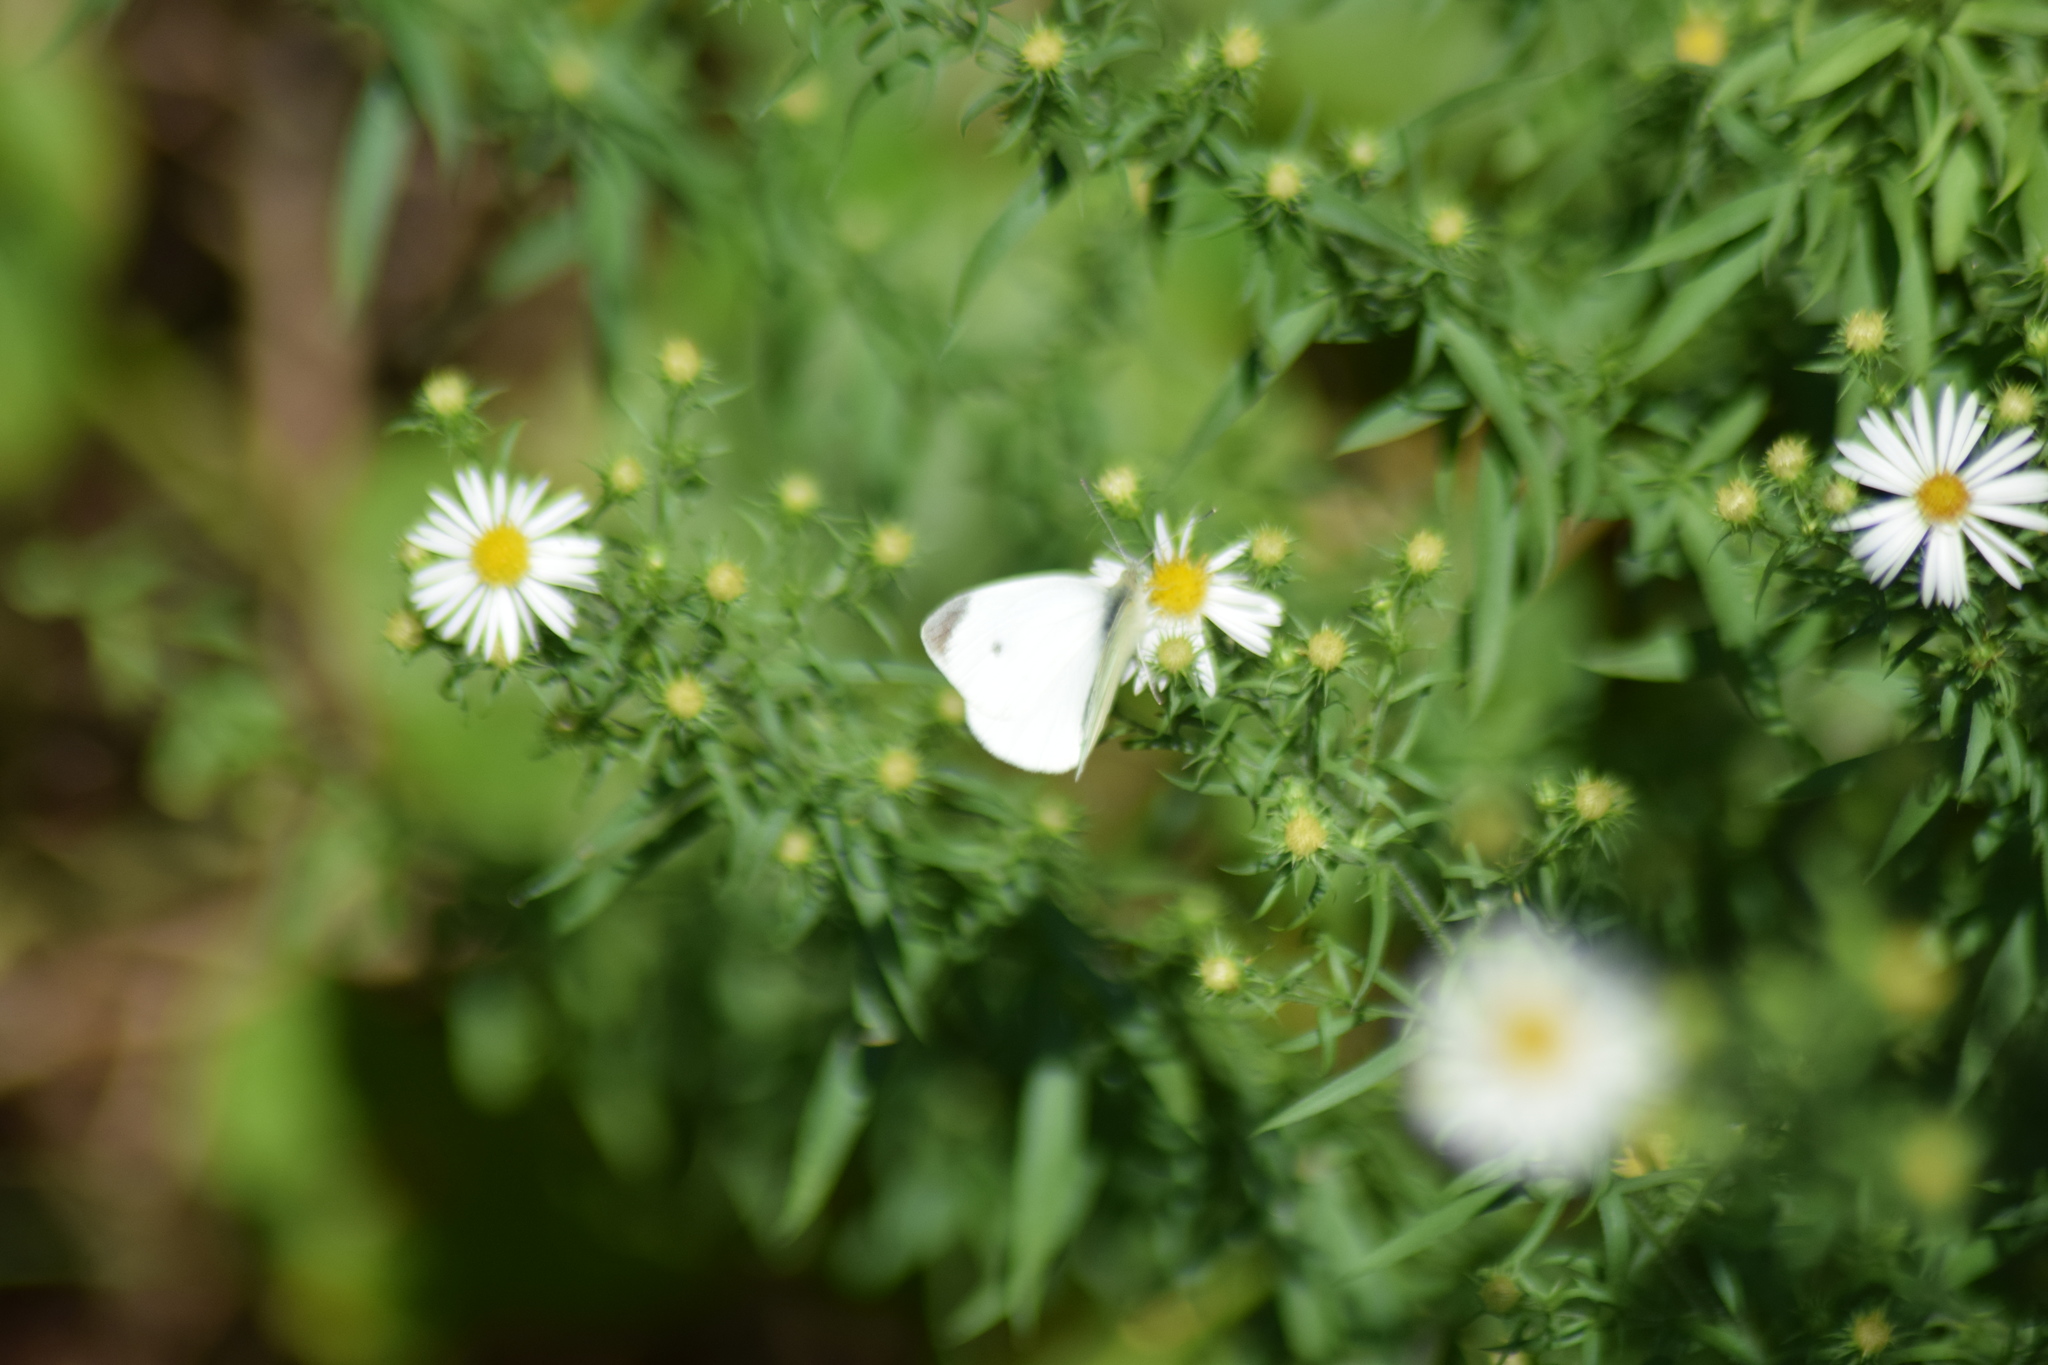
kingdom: Animalia
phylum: Arthropoda
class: Insecta
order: Lepidoptera
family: Pieridae
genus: Pieris
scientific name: Pieris rapae
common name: Small white
